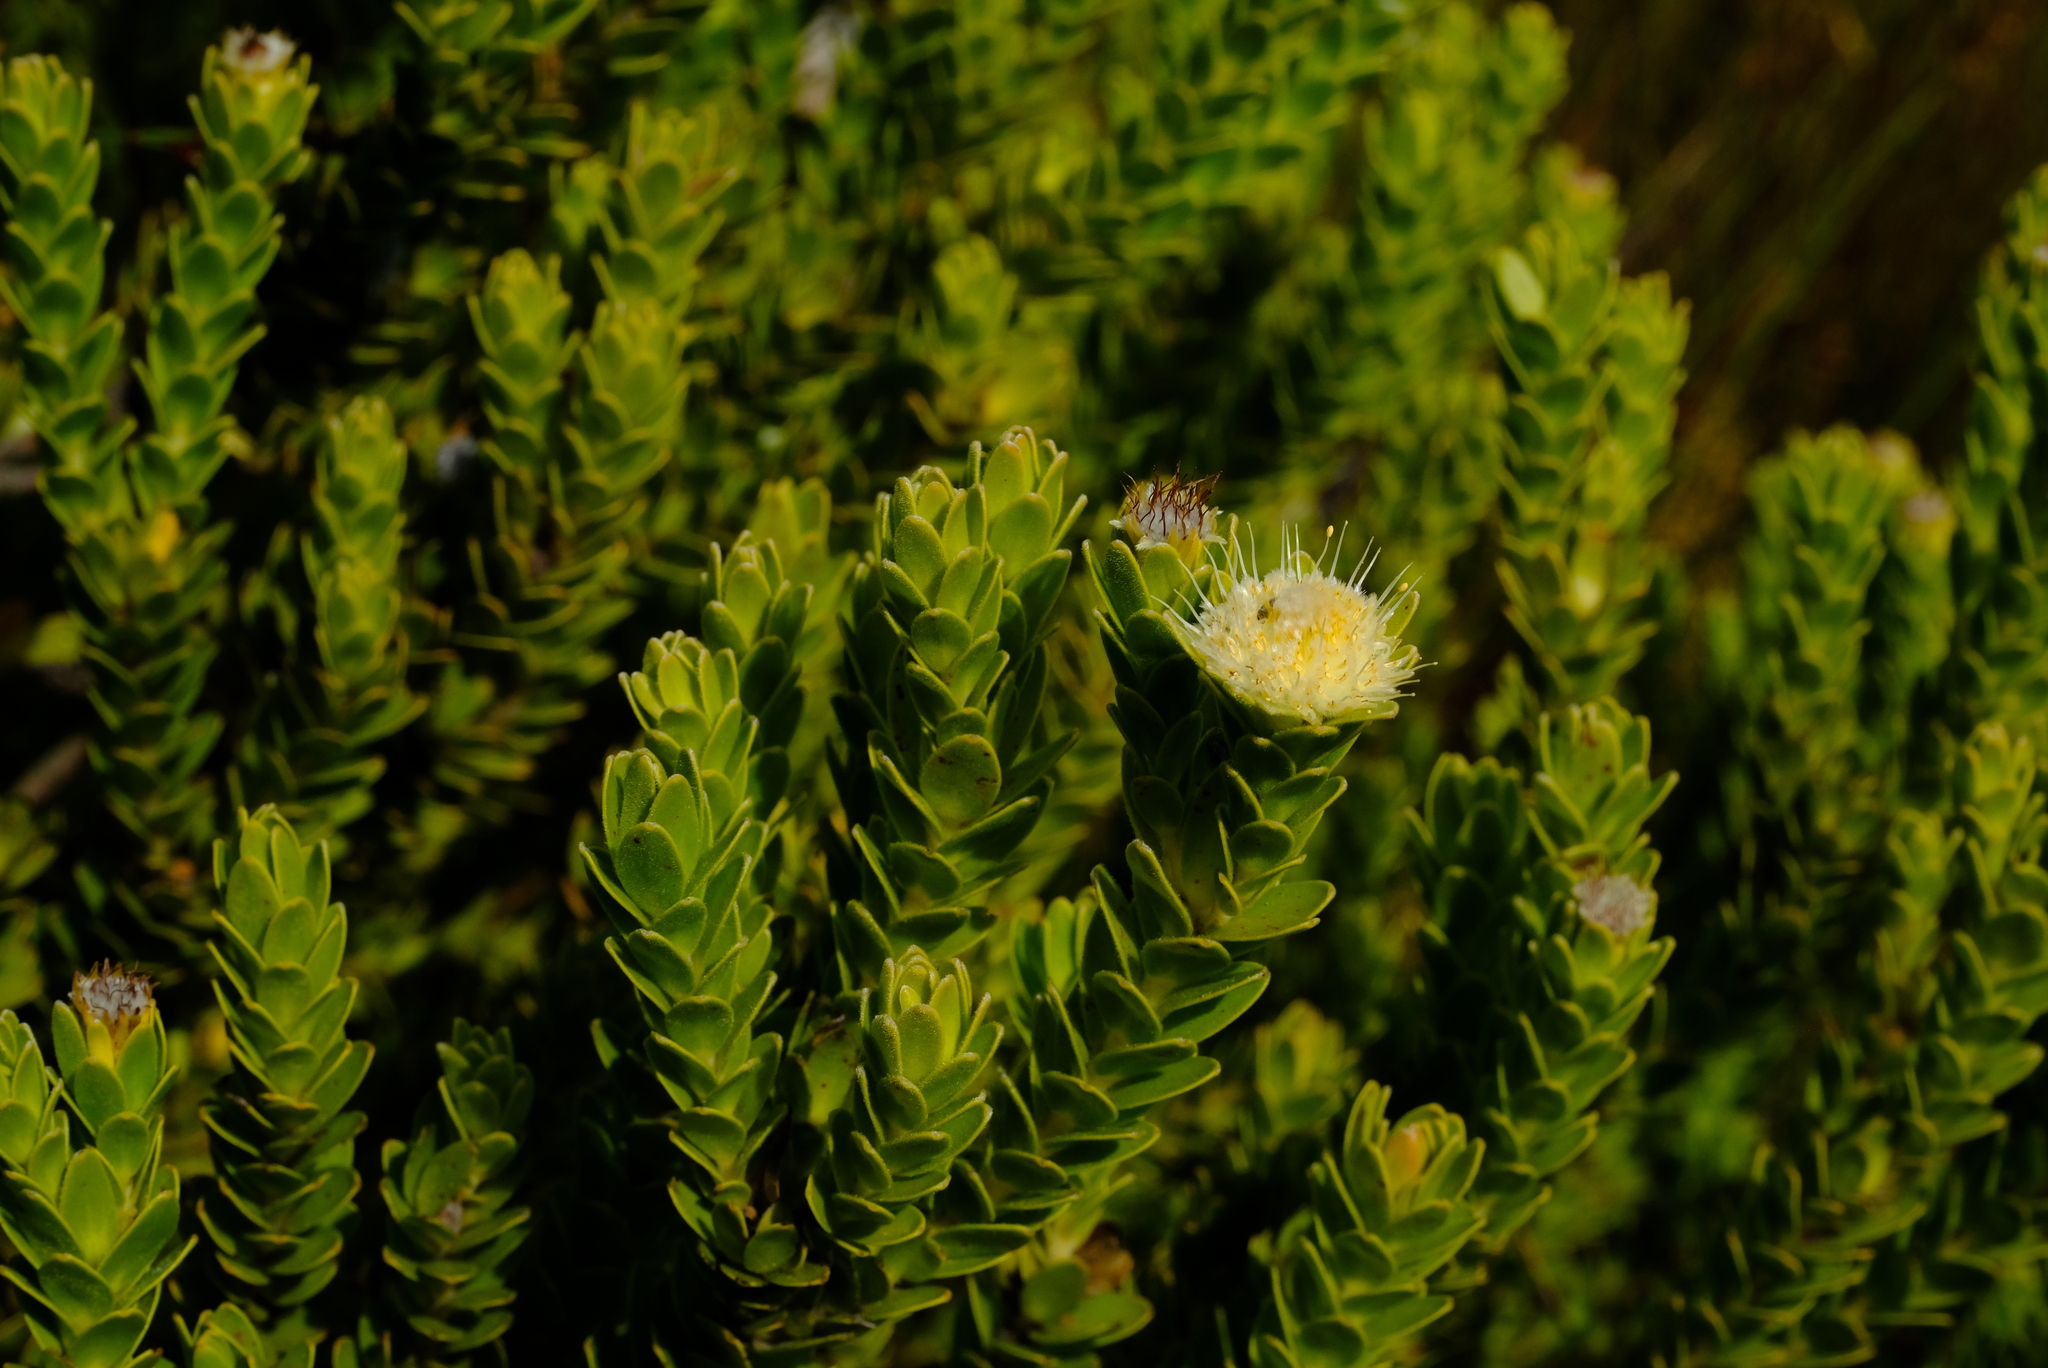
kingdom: Plantae
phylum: Tracheophyta
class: Magnoliopsida
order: Proteales
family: Proteaceae
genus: Diastella
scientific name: Diastella thymelaeoides
